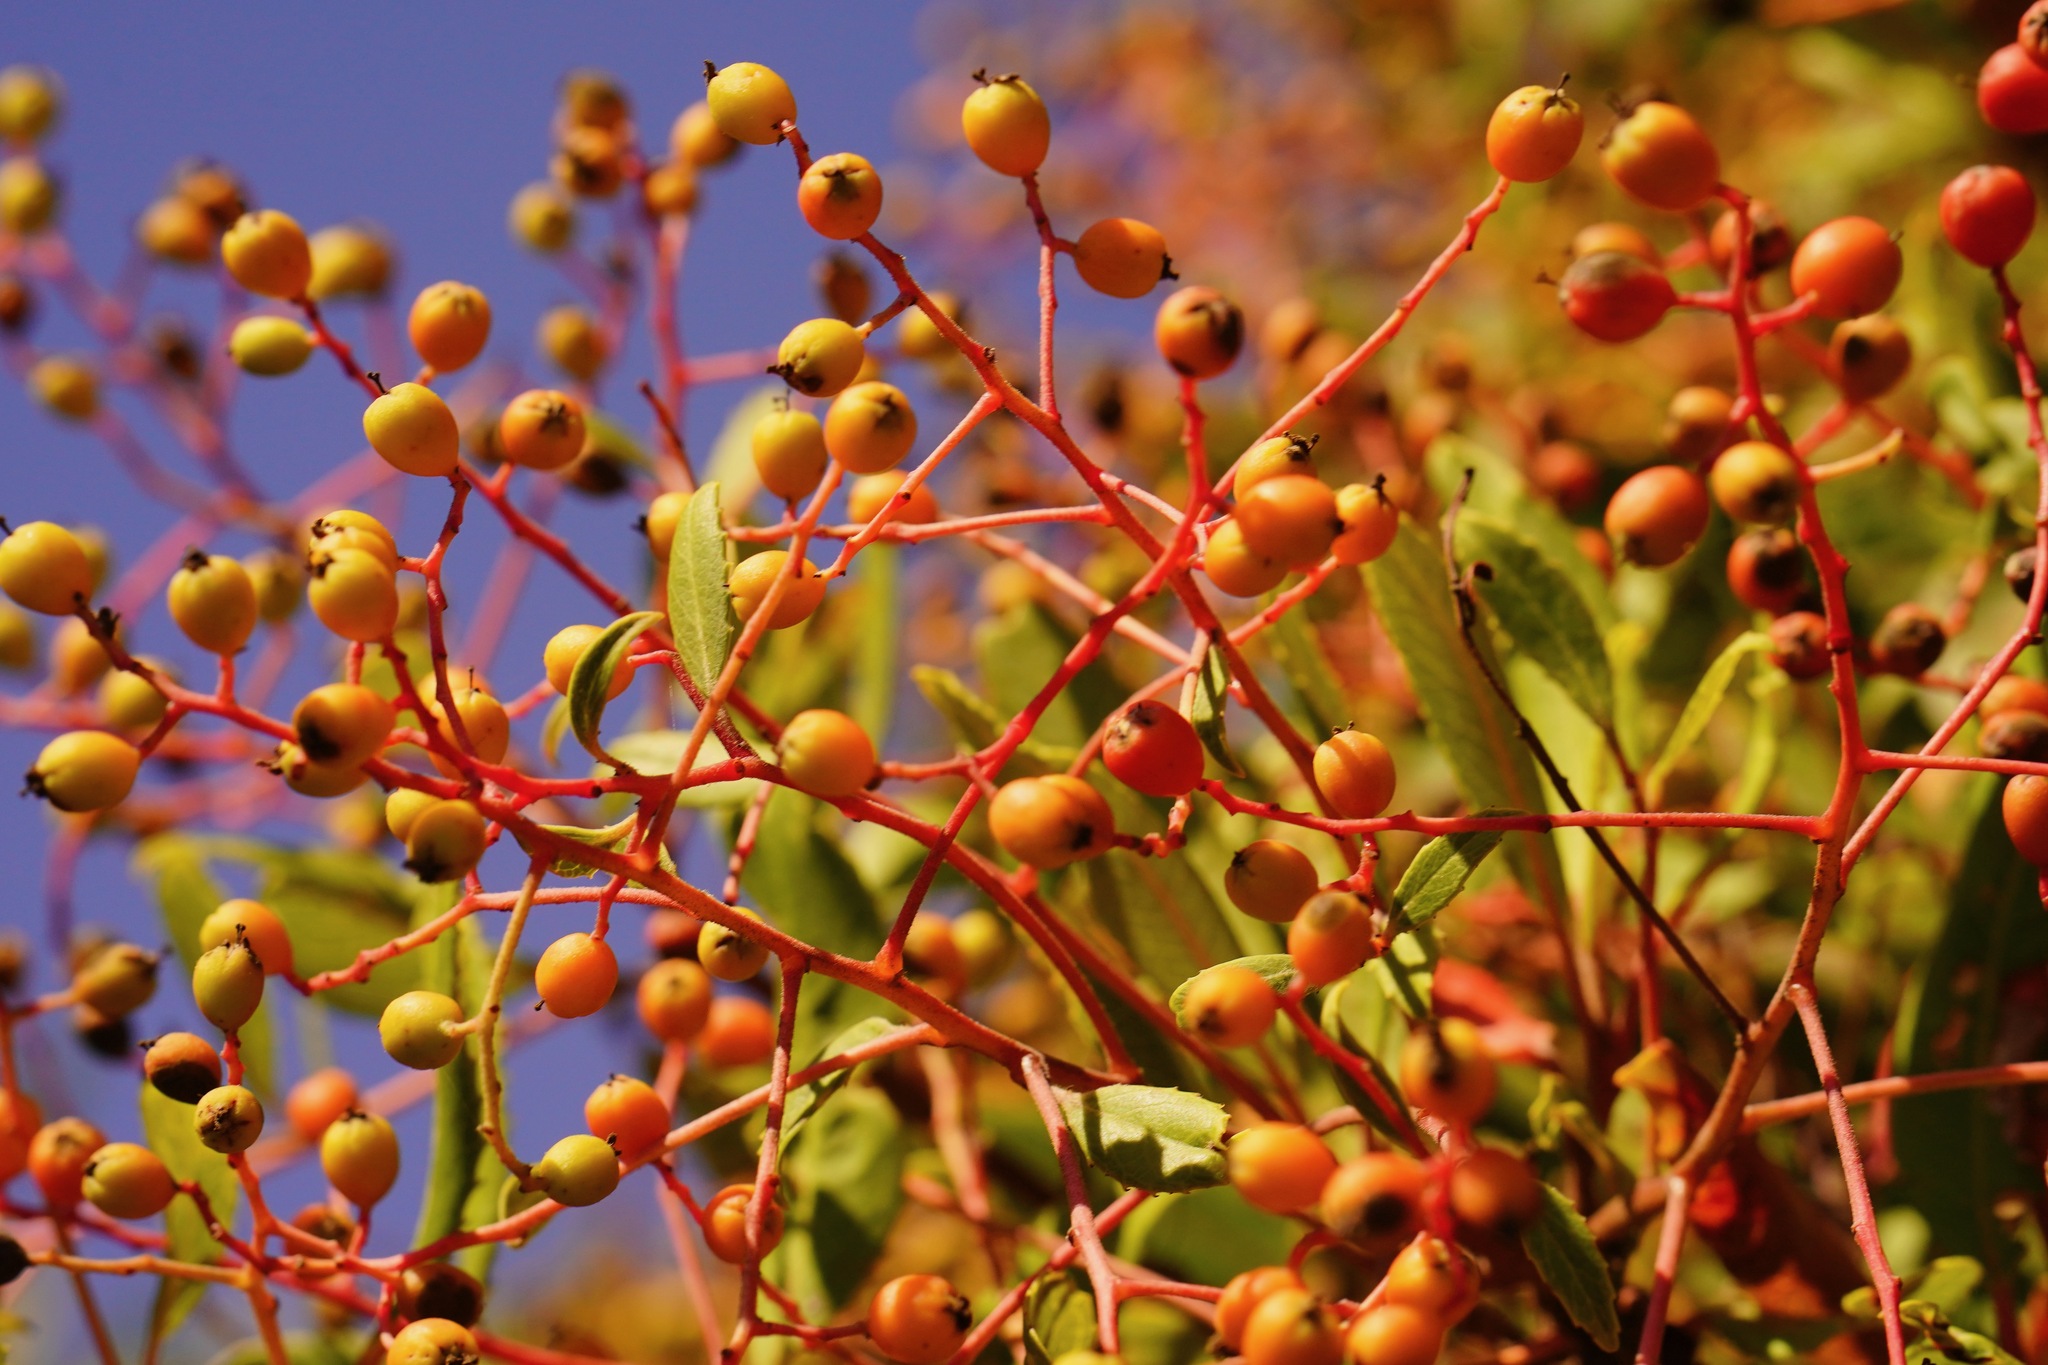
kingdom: Plantae
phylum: Tracheophyta
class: Magnoliopsida
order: Rosales
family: Rosaceae
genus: Heteromeles
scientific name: Heteromeles arbutifolia
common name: California-holly
